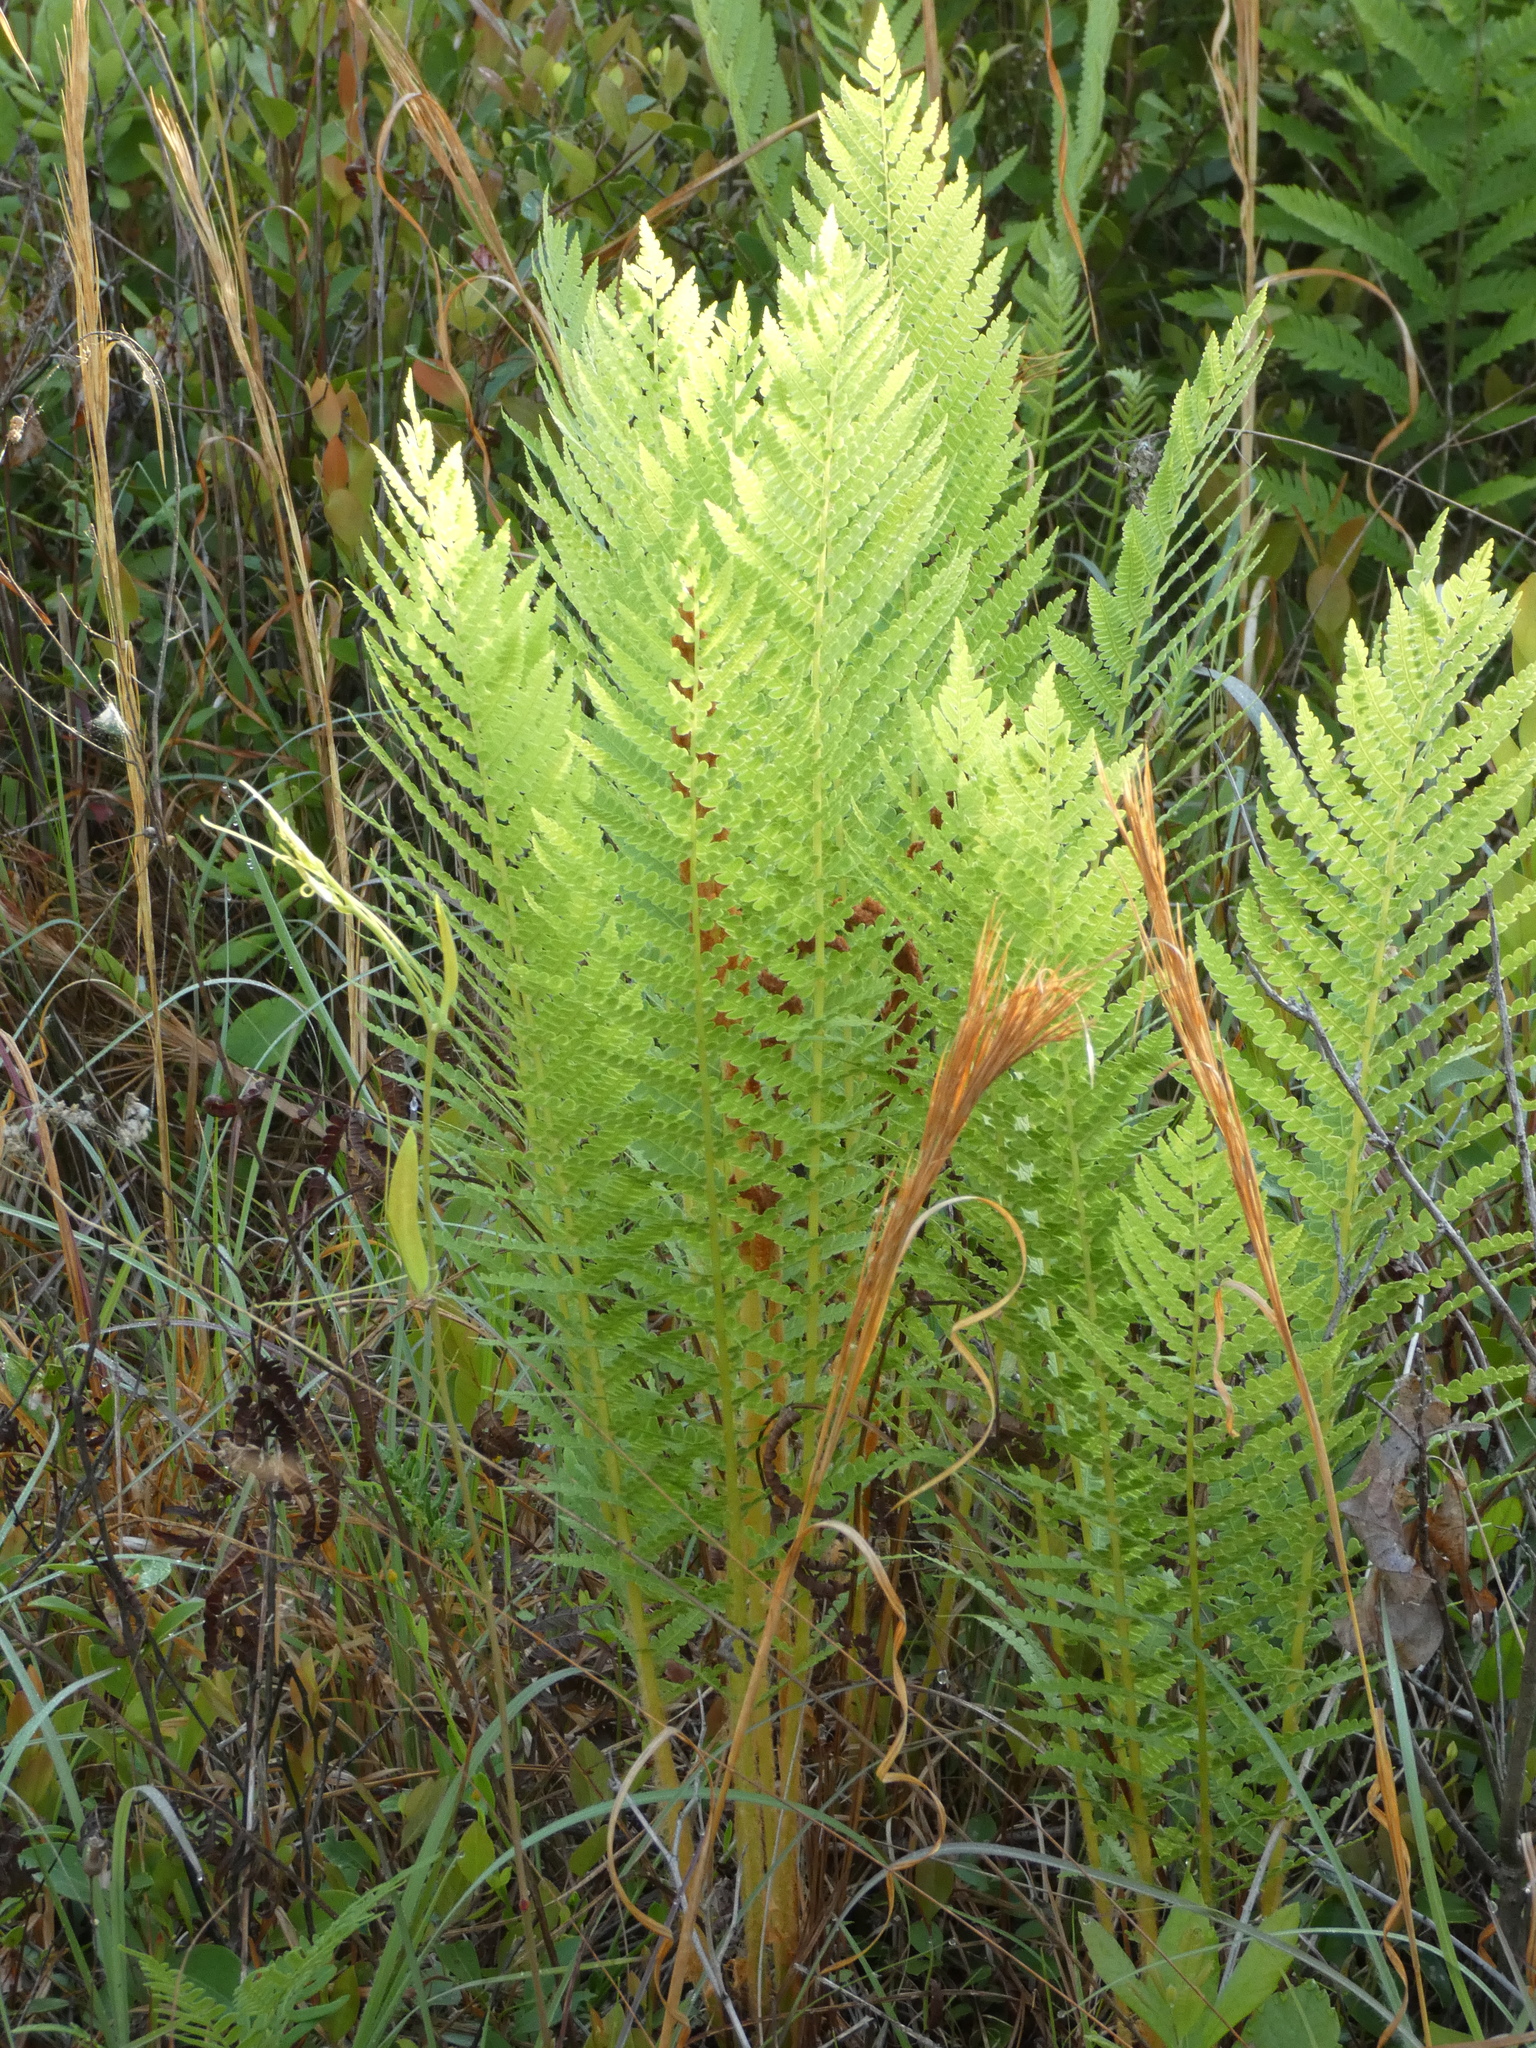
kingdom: Plantae
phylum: Tracheophyta
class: Polypodiopsida
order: Osmundales
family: Osmundaceae
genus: Osmundastrum
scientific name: Osmundastrum cinnamomeum
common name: Cinnamon fern
